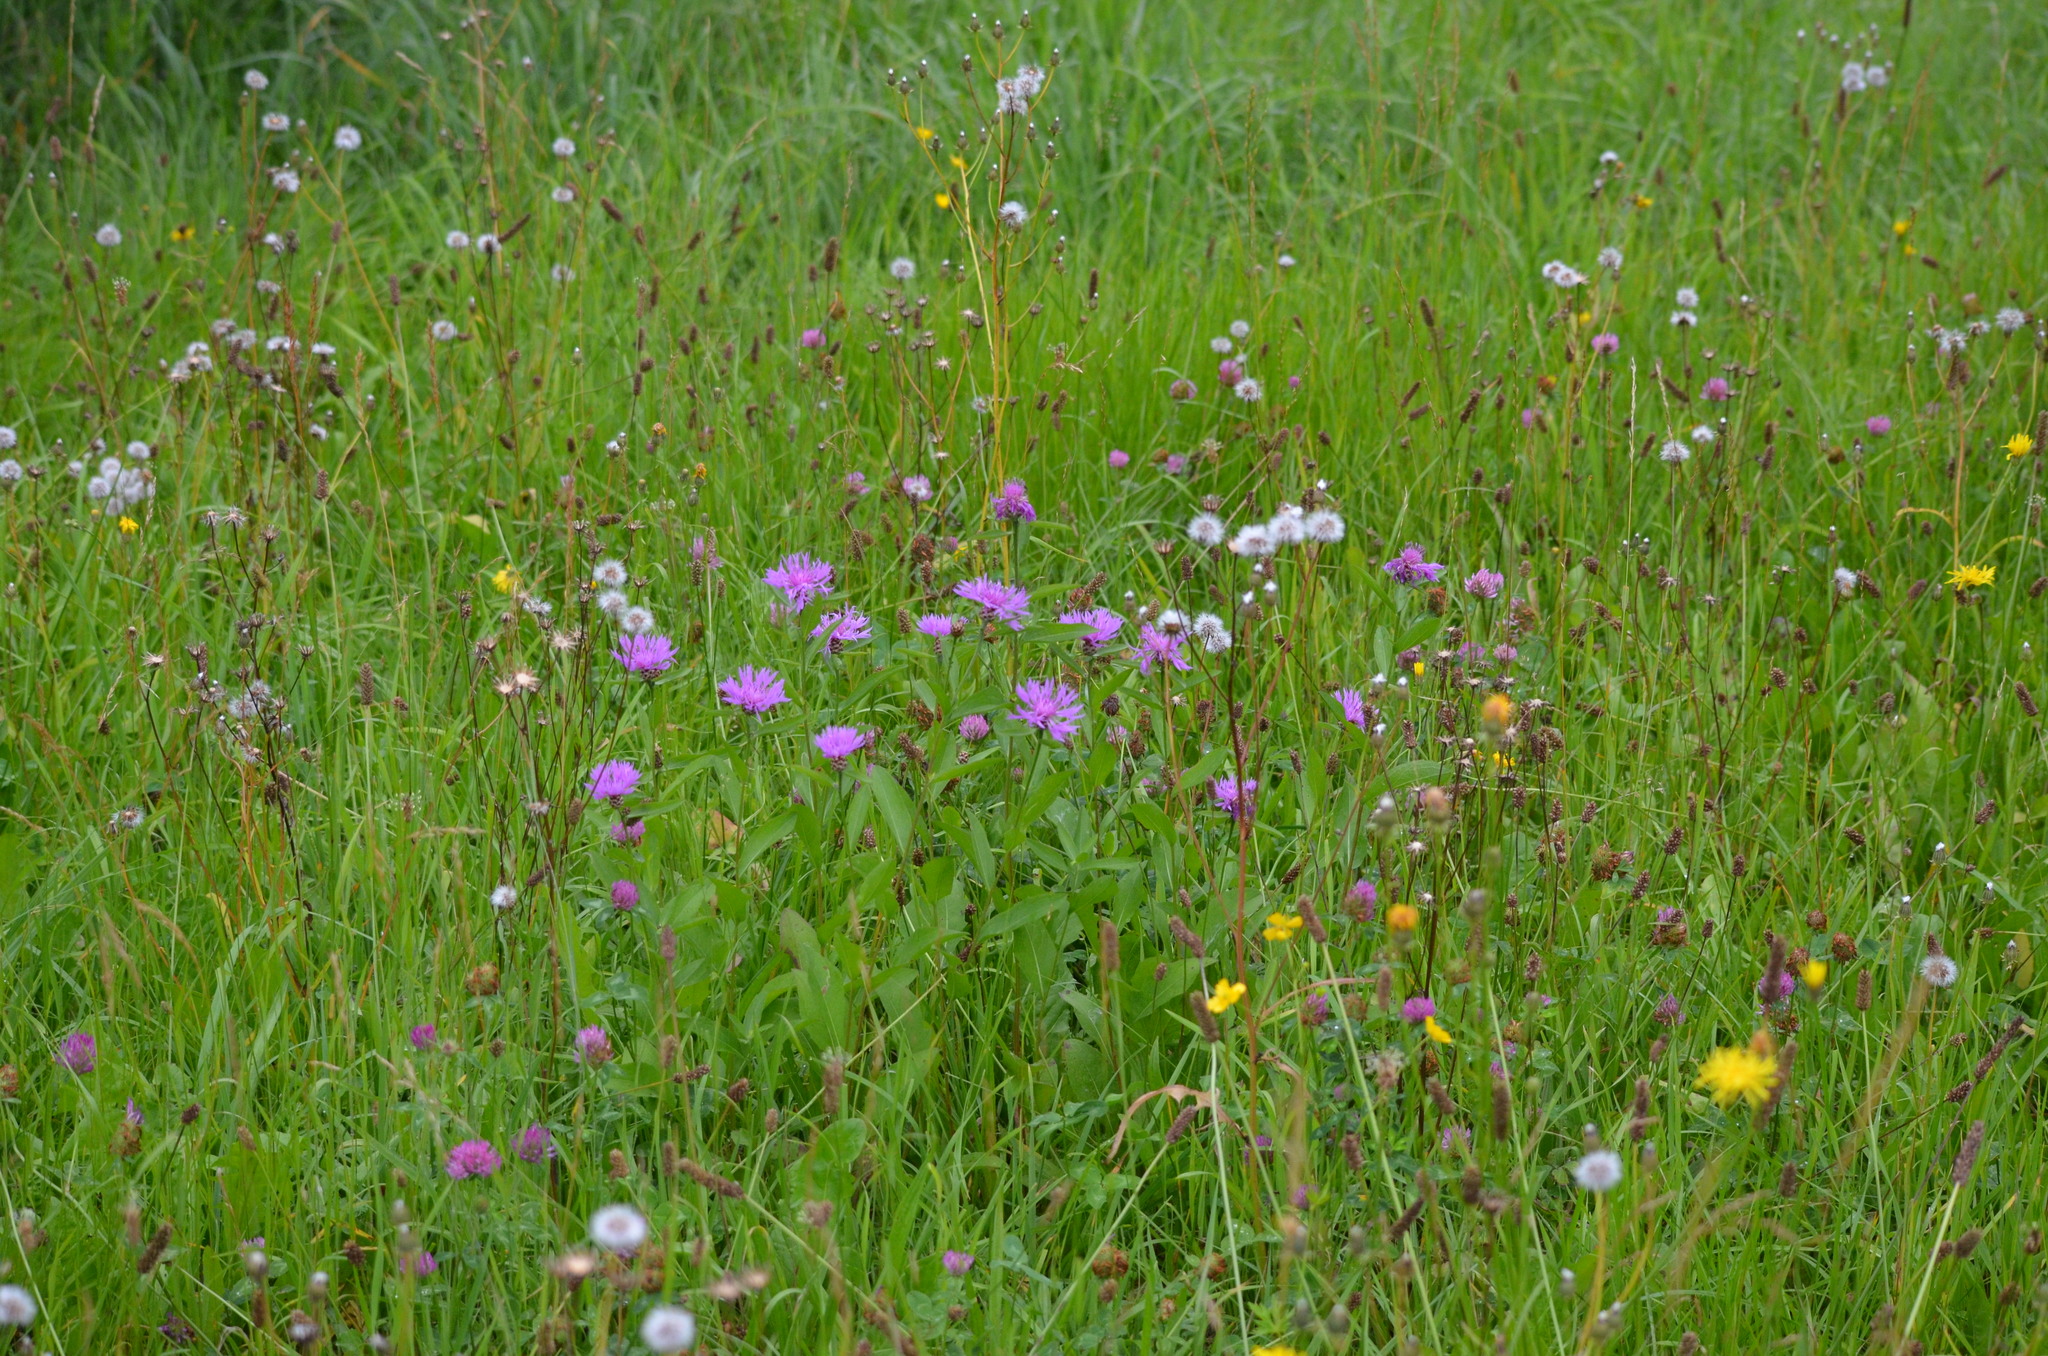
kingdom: Plantae
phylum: Tracheophyta
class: Magnoliopsida
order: Asterales
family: Asteraceae
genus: Centaurea
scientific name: Centaurea jacea
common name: Brown knapweed
